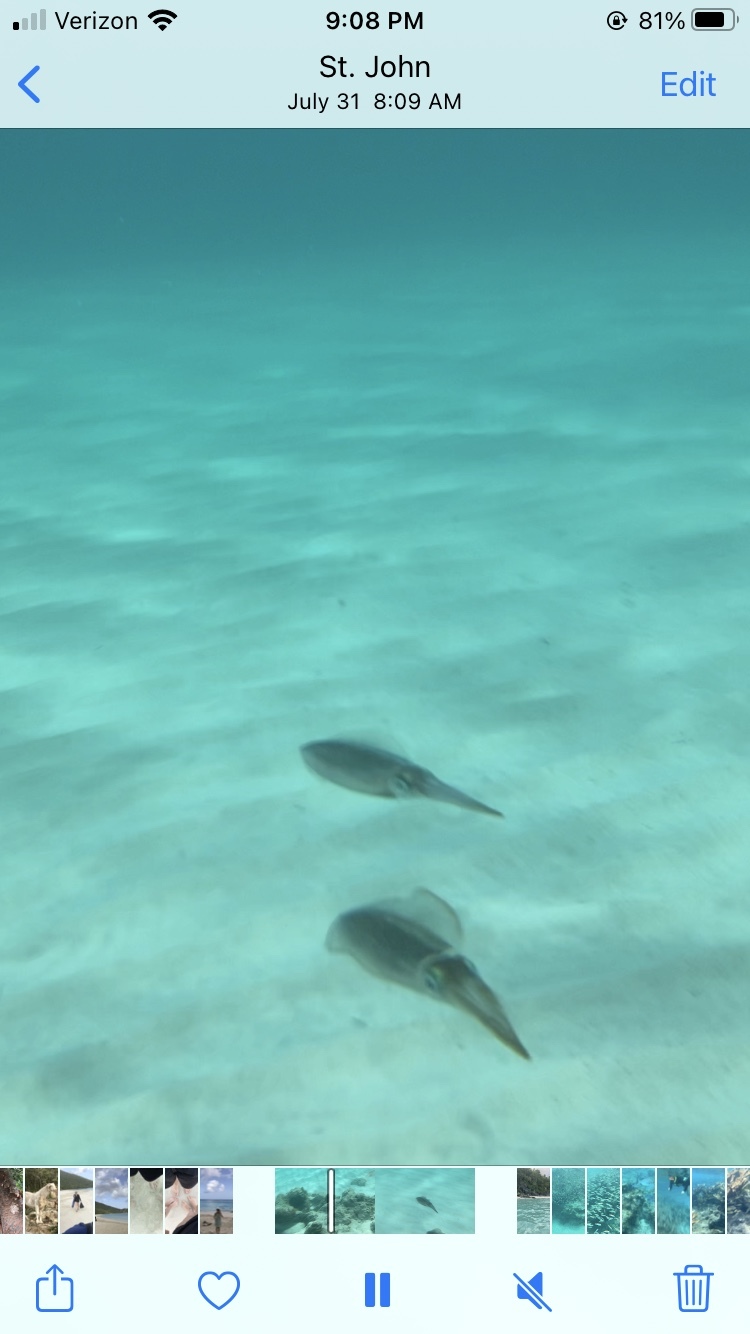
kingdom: Animalia
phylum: Mollusca
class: Cephalopoda
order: Myopsida
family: Loliginidae
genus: Sepioteuthis
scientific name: Sepioteuthis sepioidea
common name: Caribbean reef squid
